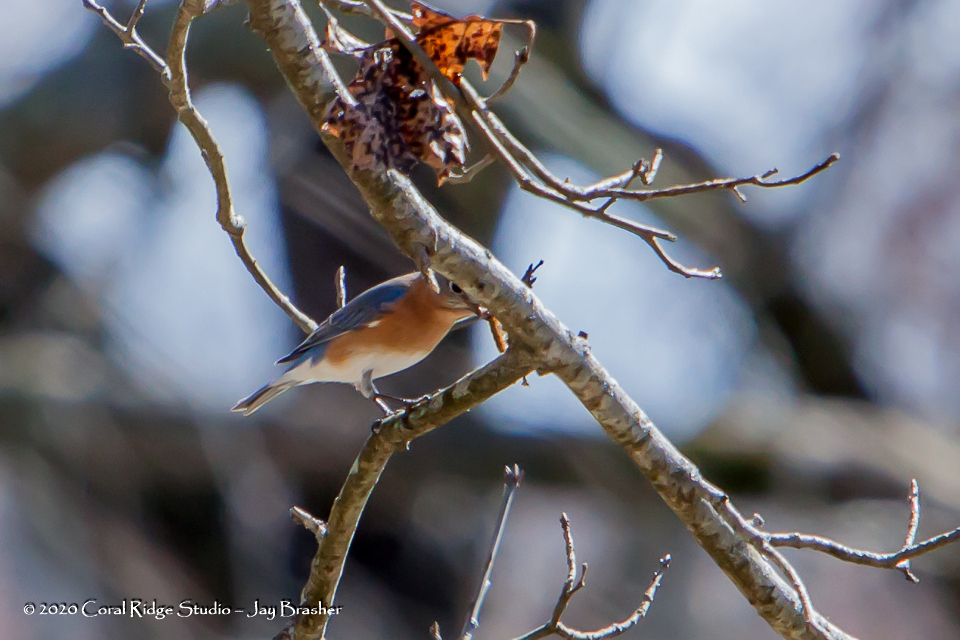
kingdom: Animalia
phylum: Chordata
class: Aves
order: Passeriformes
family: Turdidae
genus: Sialia
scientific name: Sialia sialis
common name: Eastern bluebird
